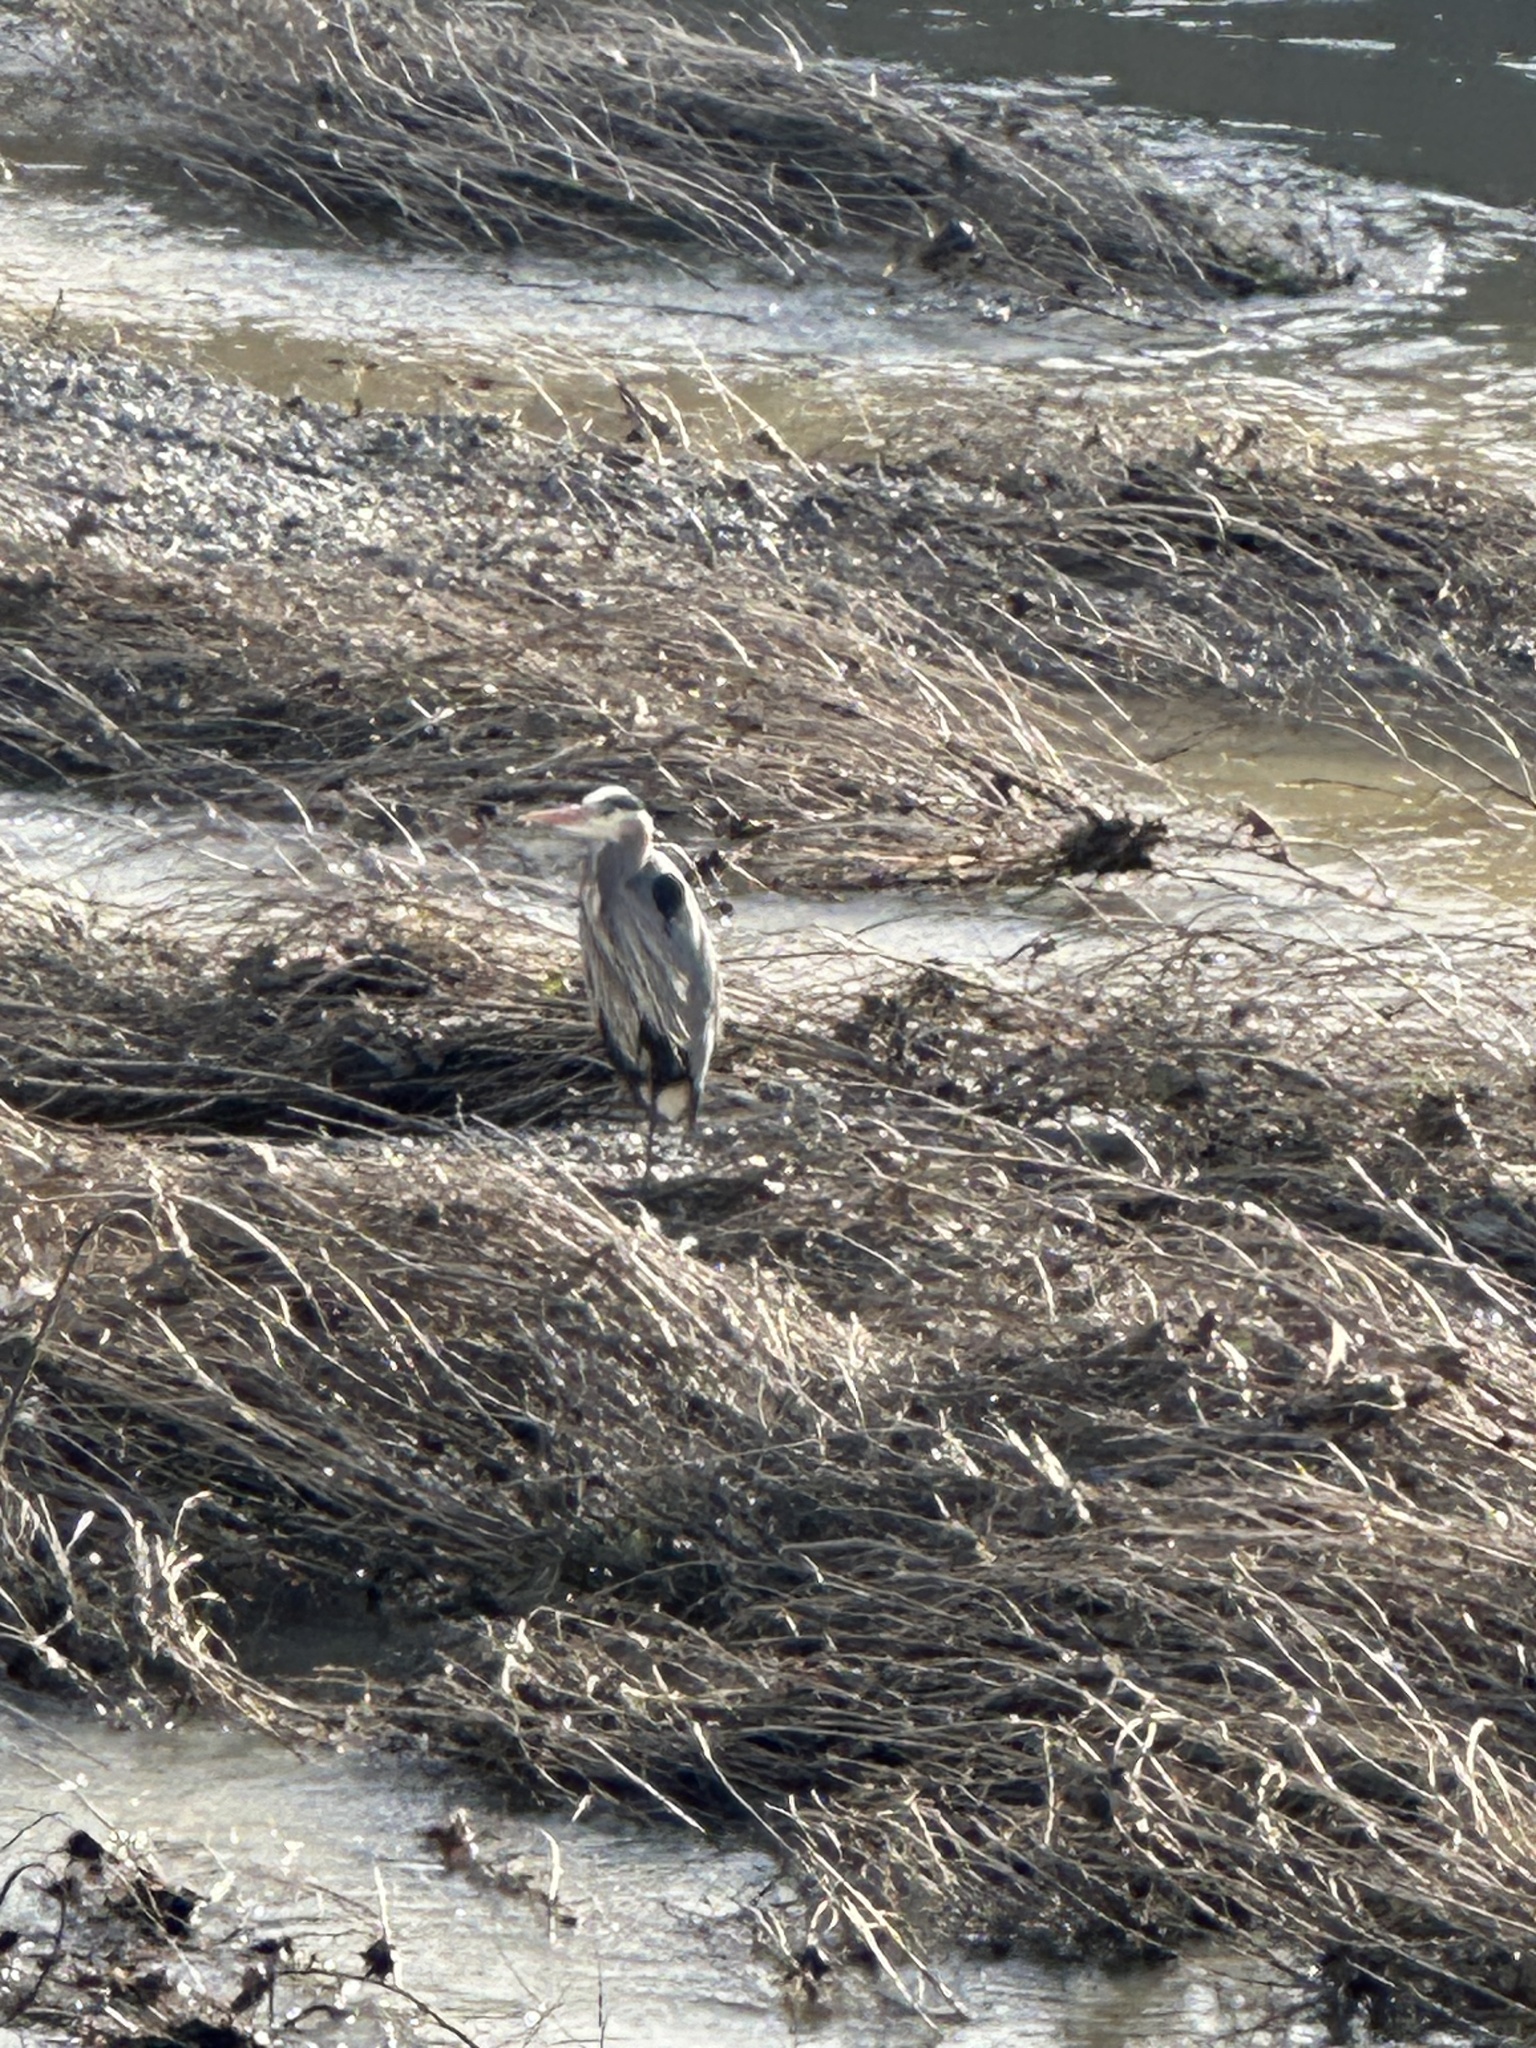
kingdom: Animalia
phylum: Chordata
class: Aves
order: Pelecaniformes
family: Ardeidae
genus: Ardea
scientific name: Ardea herodias
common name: Great blue heron
